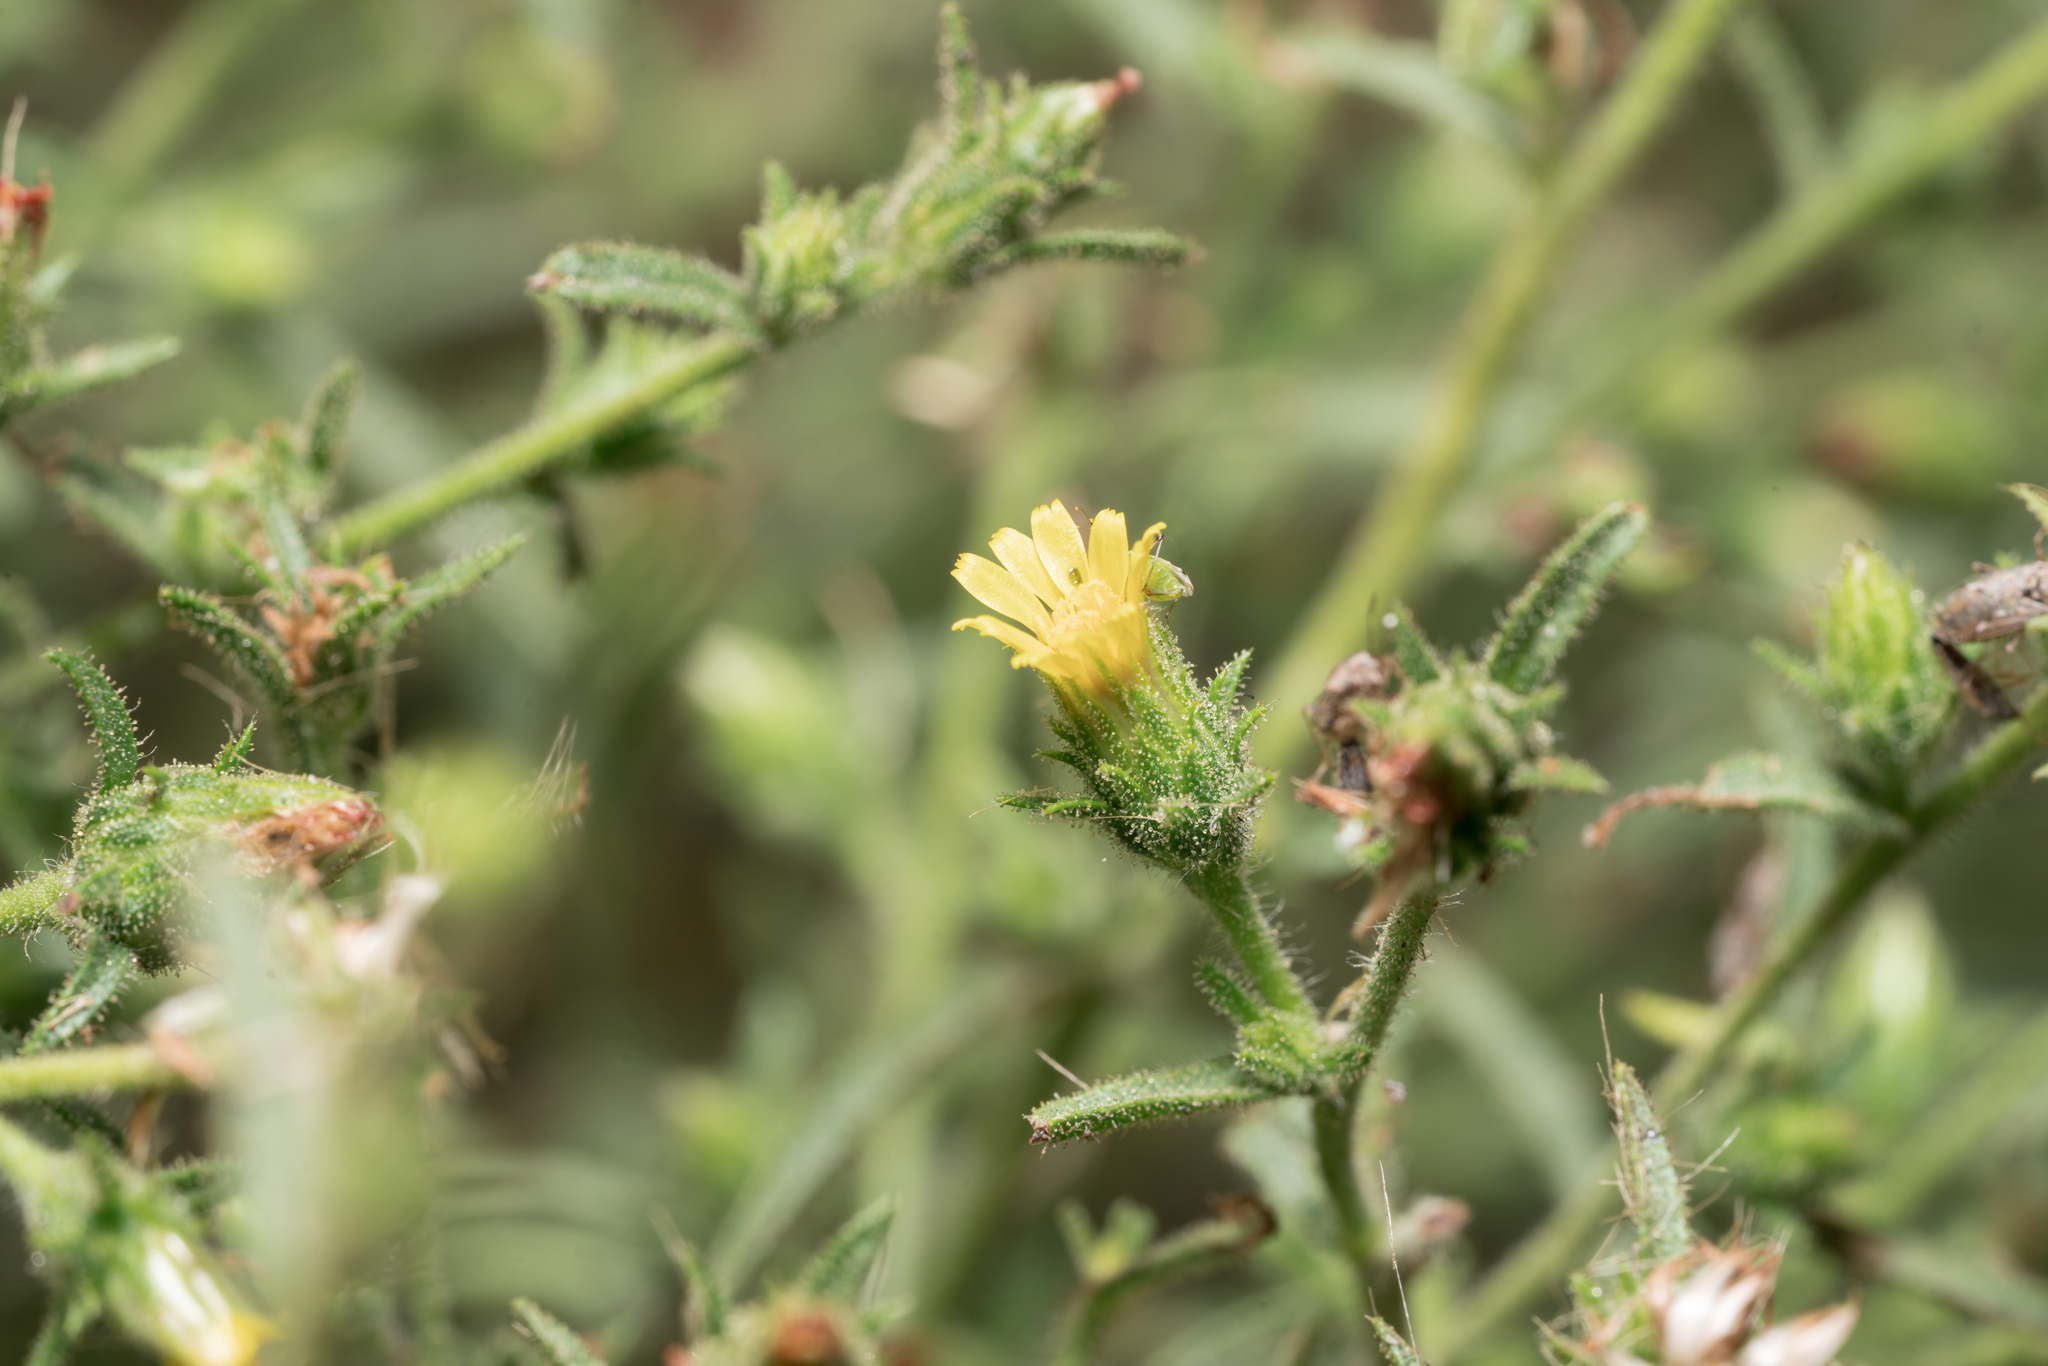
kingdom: Plantae
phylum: Tracheophyta
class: Magnoliopsida
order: Asterales
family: Asteraceae
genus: Dittrichia
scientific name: Dittrichia graveolens
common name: Stinking fleabane
